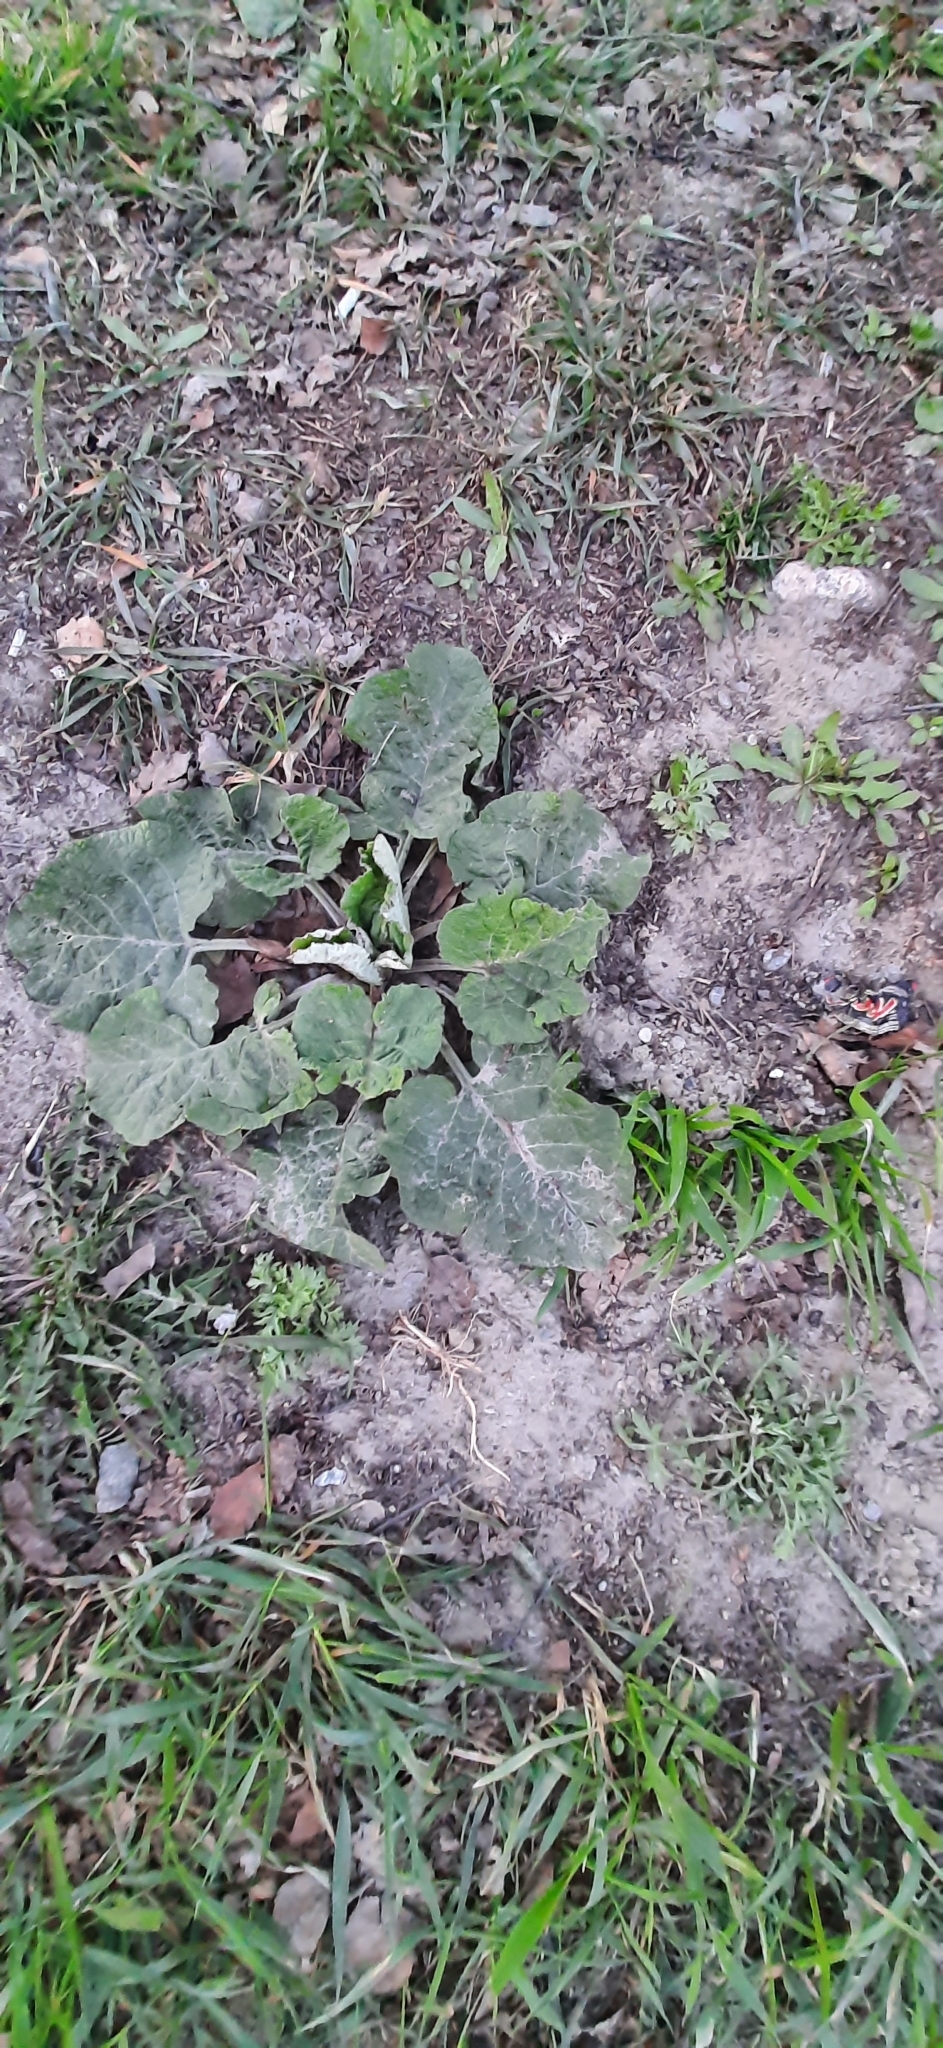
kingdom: Plantae
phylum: Tracheophyta
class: Magnoliopsida
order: Asterales
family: Asteraceae
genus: Arctium
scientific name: Arctium tomentosum
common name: Woolly burdock
